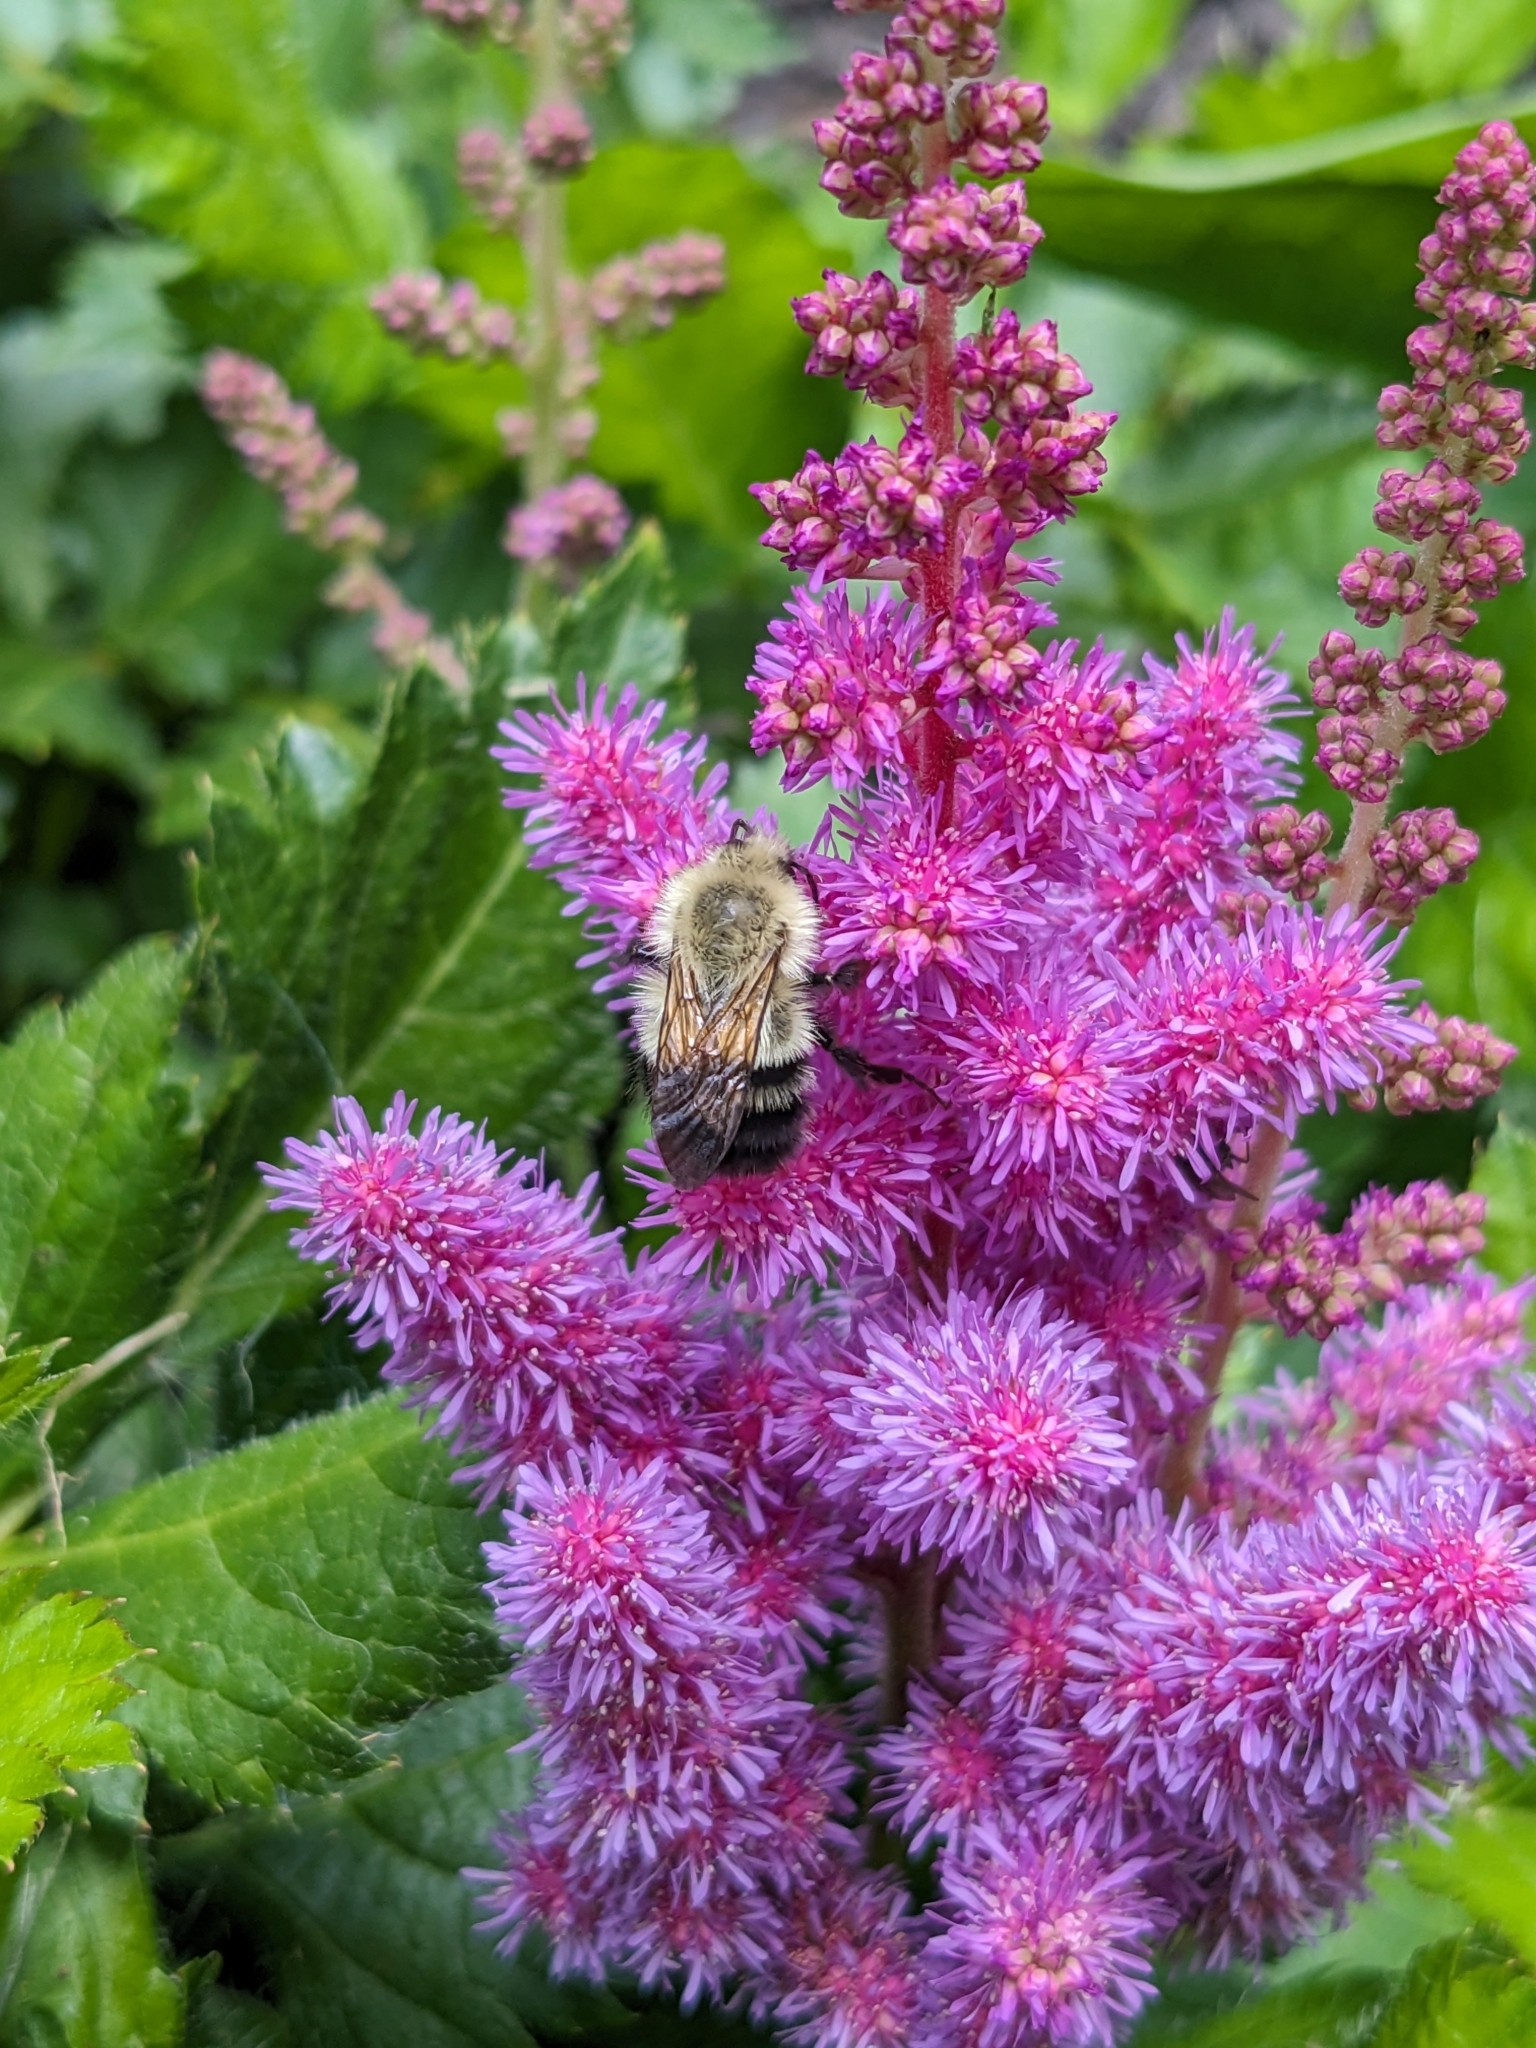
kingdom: Animalia
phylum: Arthropoda
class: Insecta
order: Hymenoptera
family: Apidae
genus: Bombus
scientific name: Bombus impatiens
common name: Common eastern bumble bee
